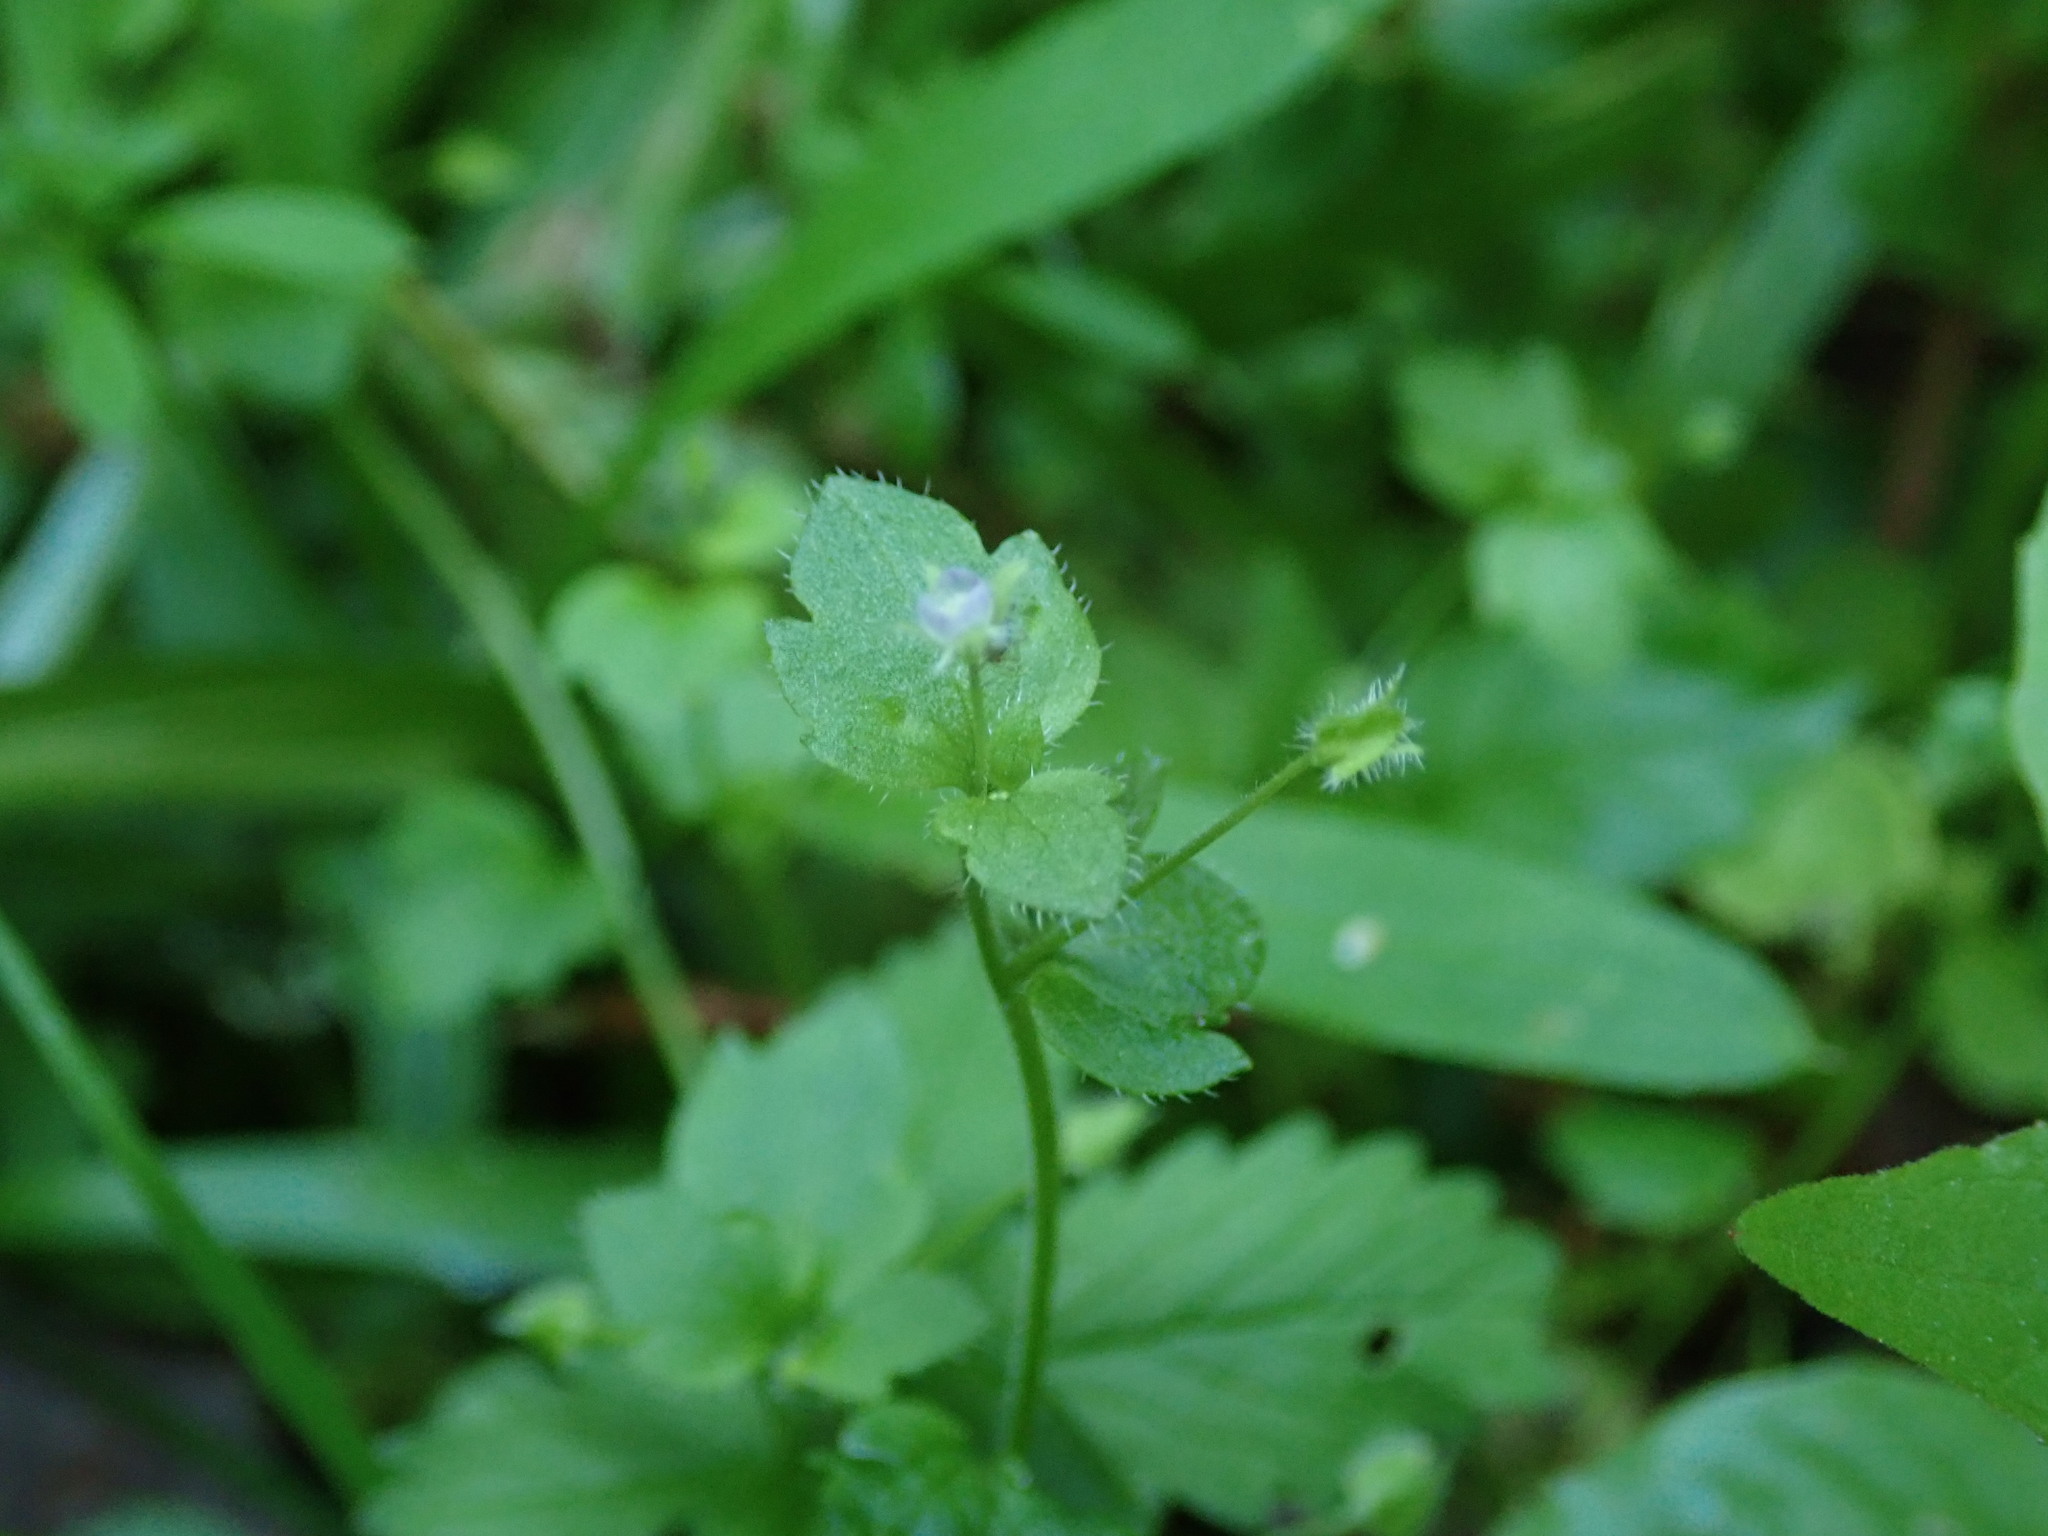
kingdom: Plantae
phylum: Tracheophyta
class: Magnoliopsida
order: Lamiales
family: Plantaginaceae
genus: Veronica
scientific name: Veronica hederifolia
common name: Ivy-leaved speedwell
